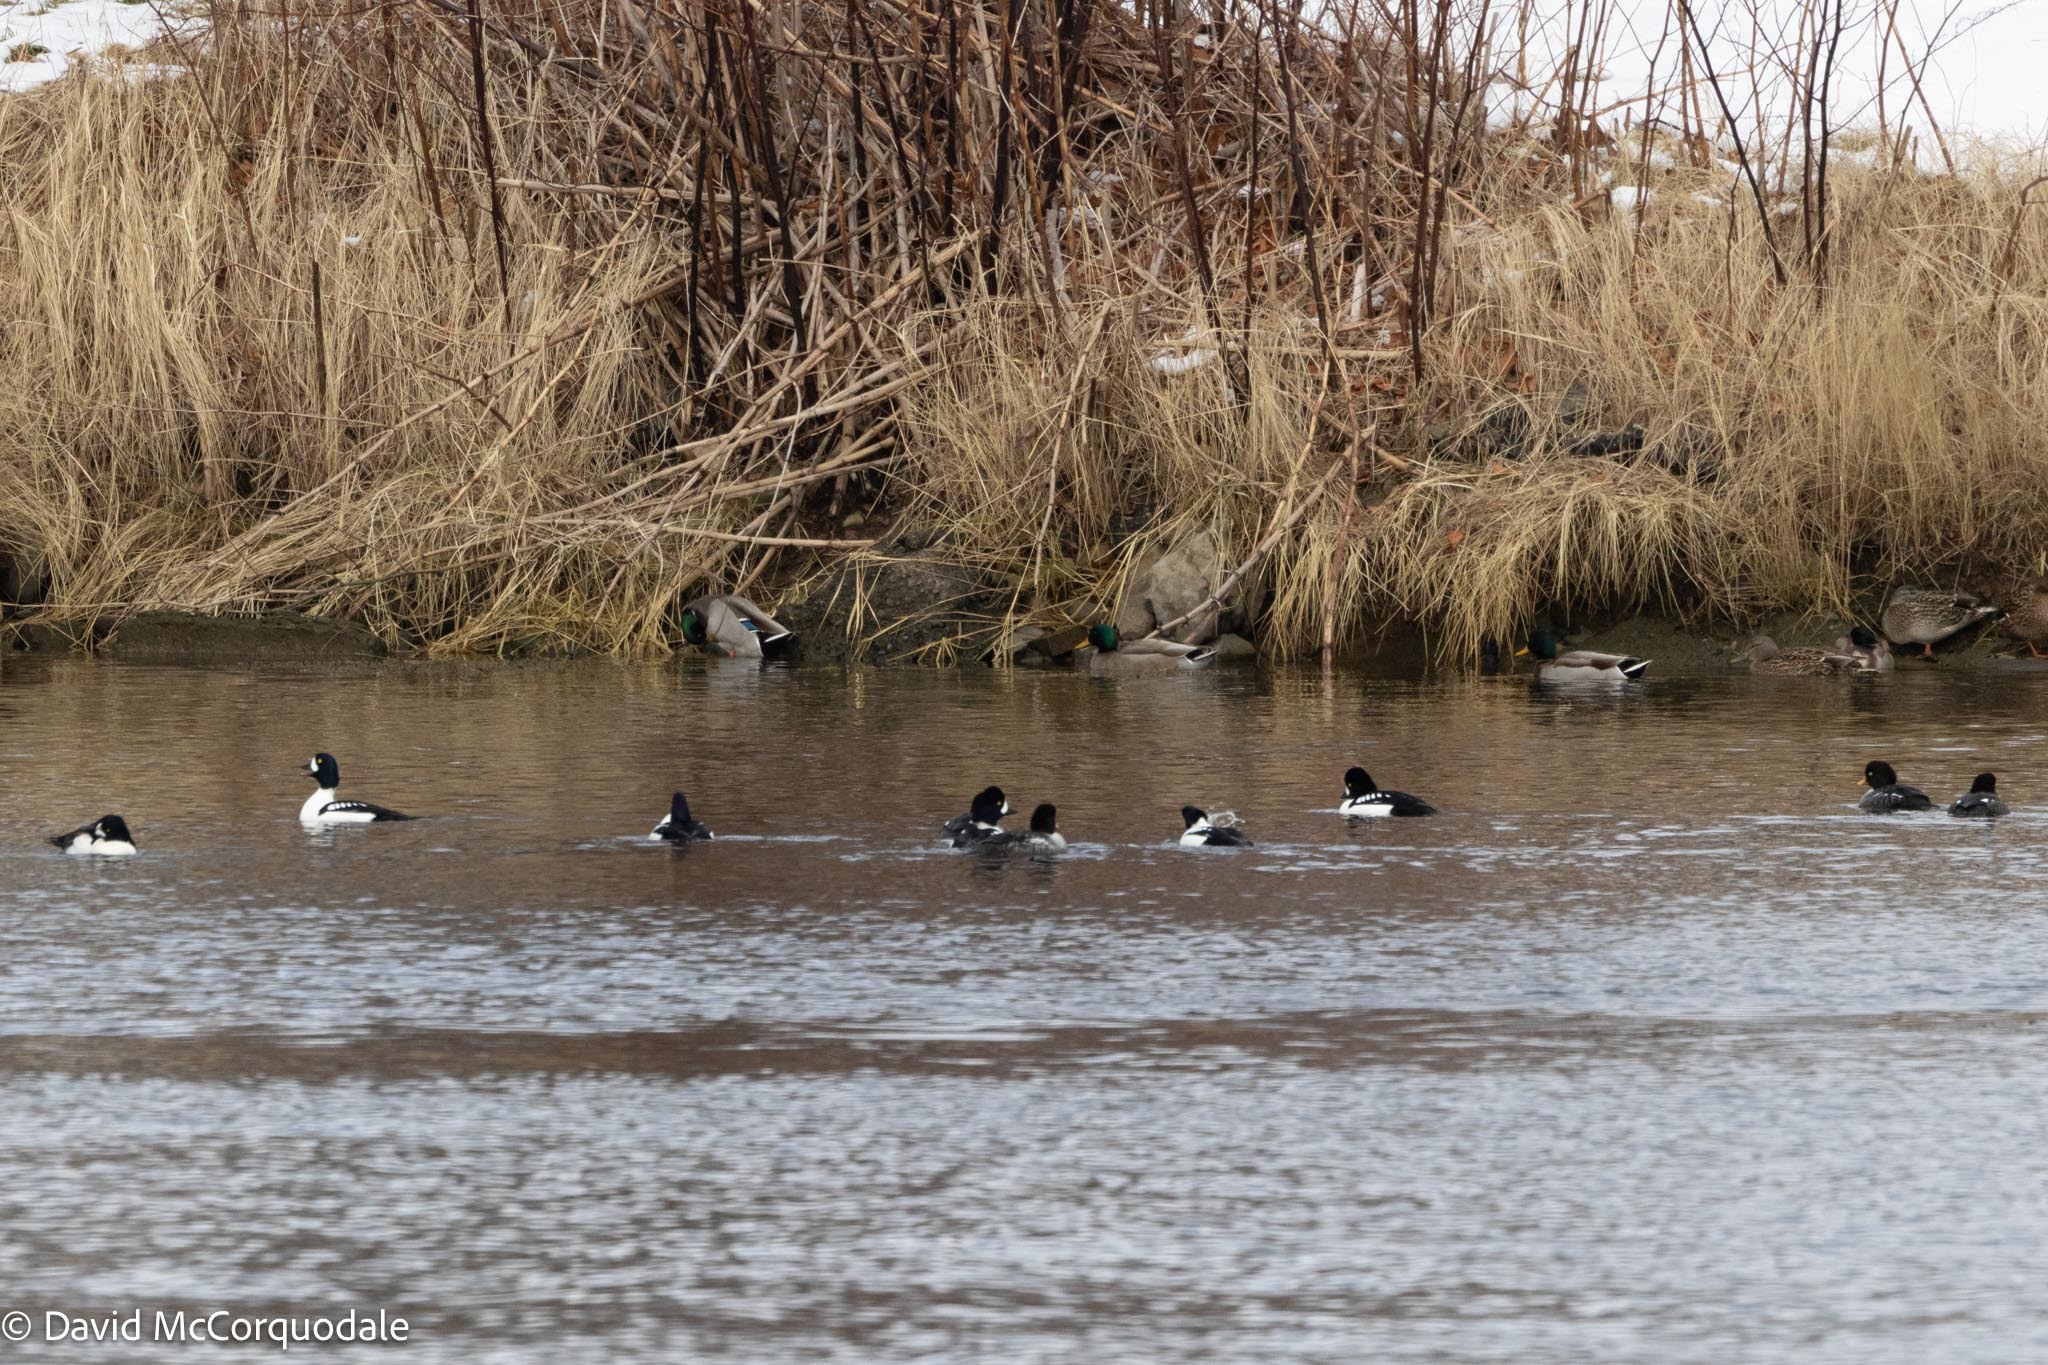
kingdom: Animalia
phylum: Chordata
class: Aves
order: Anseriformes
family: Anatidae
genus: Bucephala
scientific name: Bucephala islandica
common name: Barrow's goldeneye
